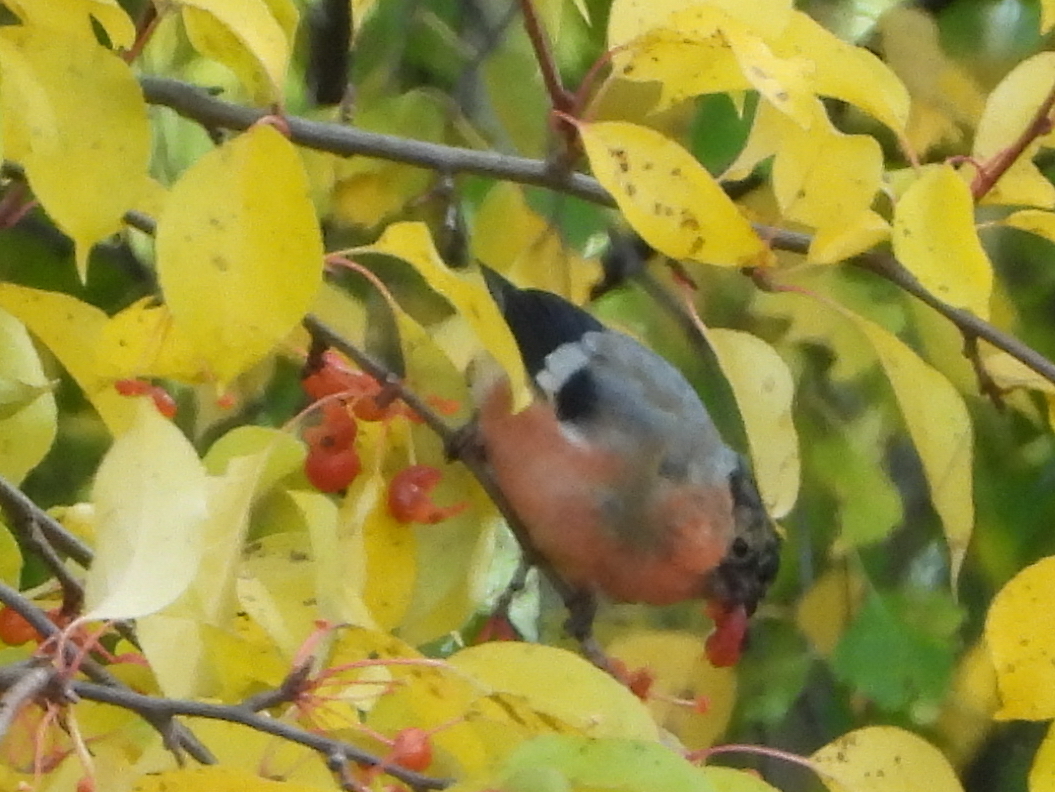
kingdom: Animalia
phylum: Chordata
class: Aves
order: Passeriformes
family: Fringillidae
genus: Pyrrhula
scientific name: Pyrrhula pyrrhula
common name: Eurasian bullfinch
